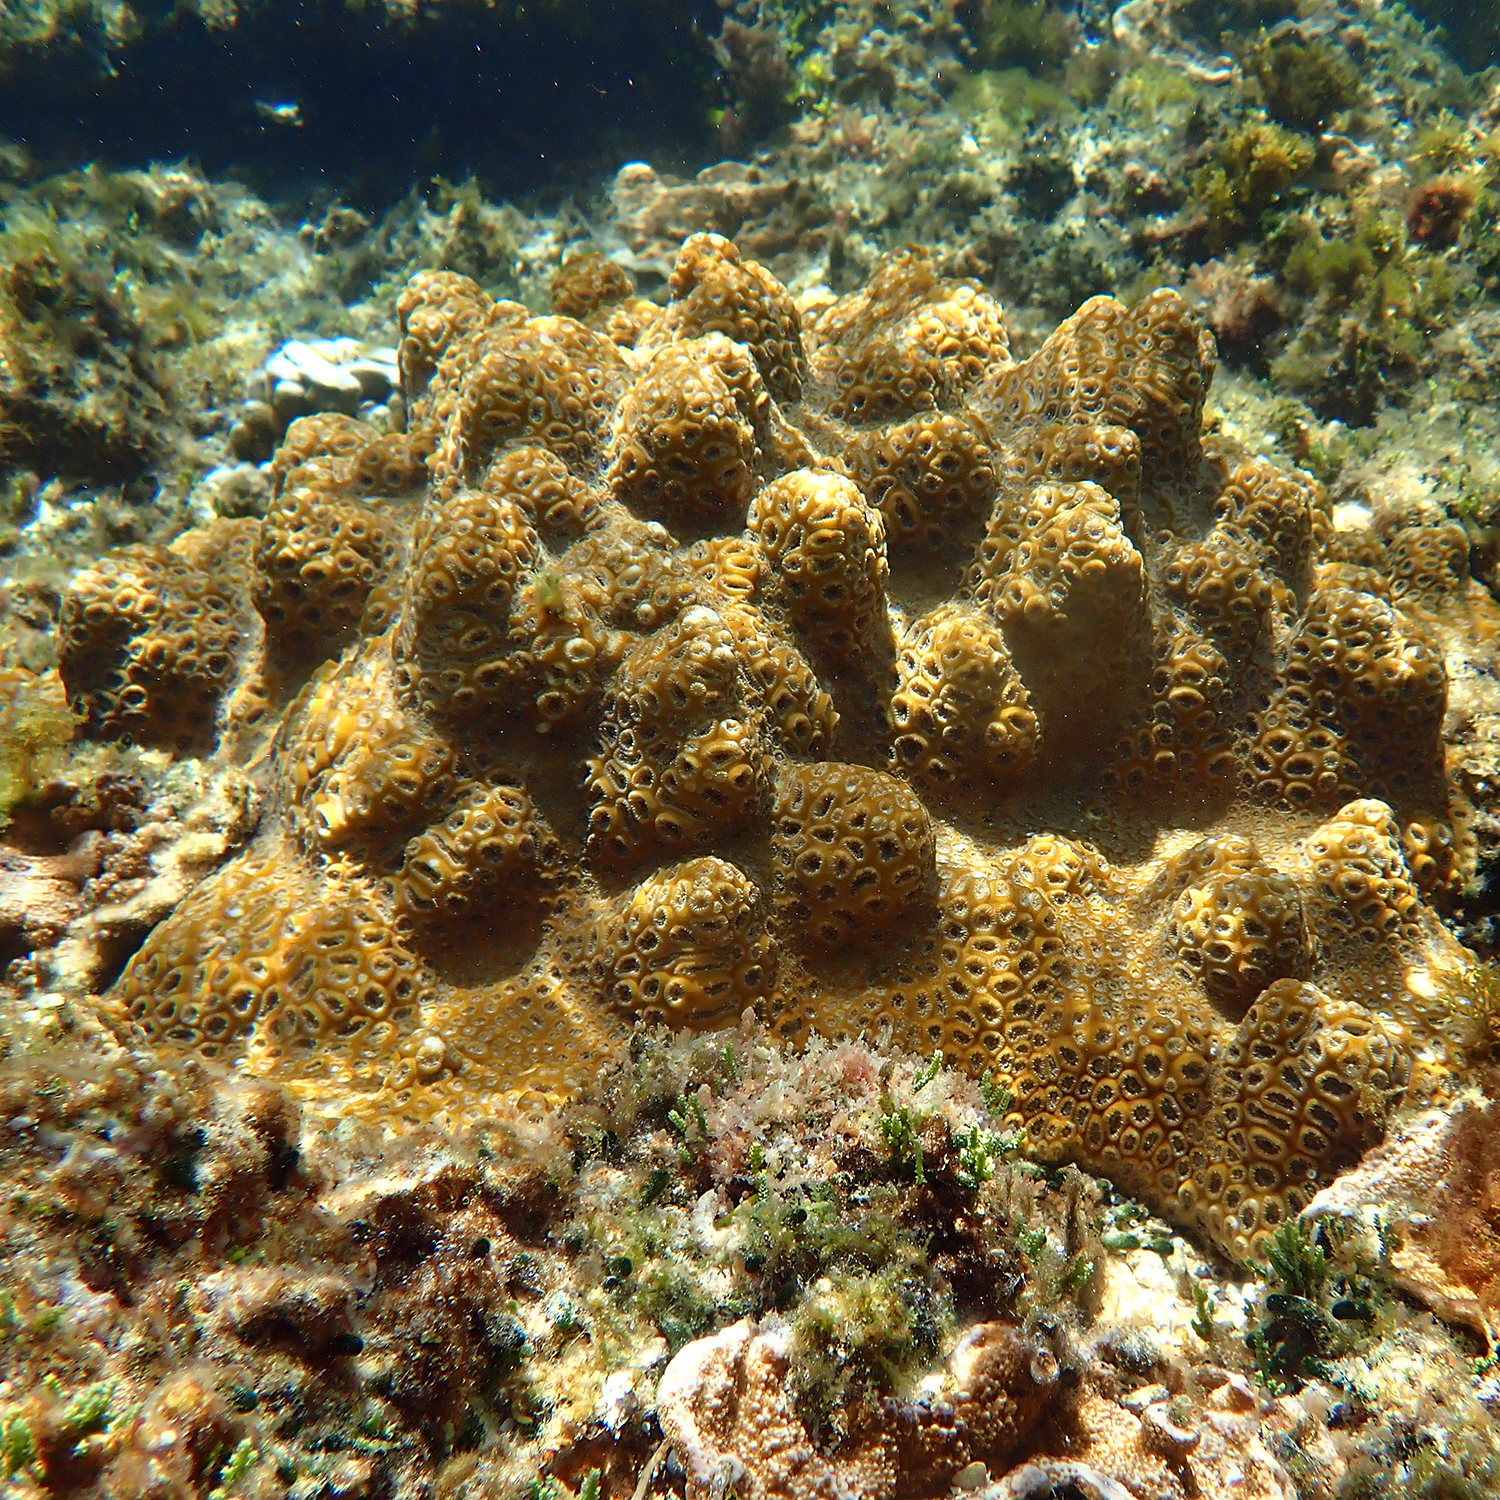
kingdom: Animalia
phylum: Cnidaria
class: Anthozoa
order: Scleractinia
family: Merulinidae
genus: Astrea
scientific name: Astrea curta
